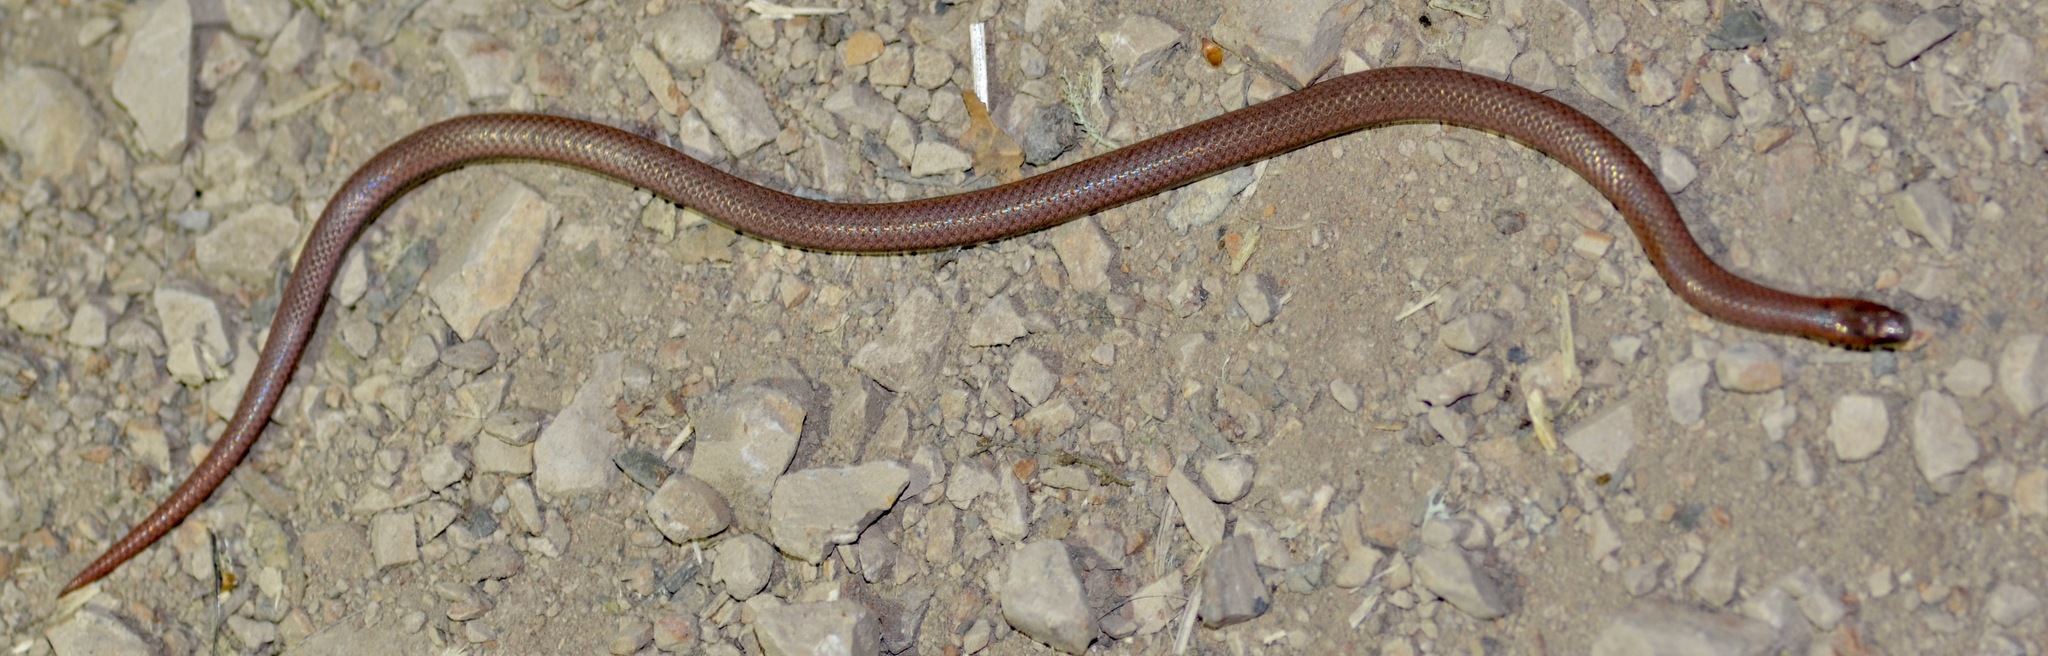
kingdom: Animalia
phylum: Chordata
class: Squamata
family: Colubridae
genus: Contia
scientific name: Contia tenuis
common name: Sharptail snake
